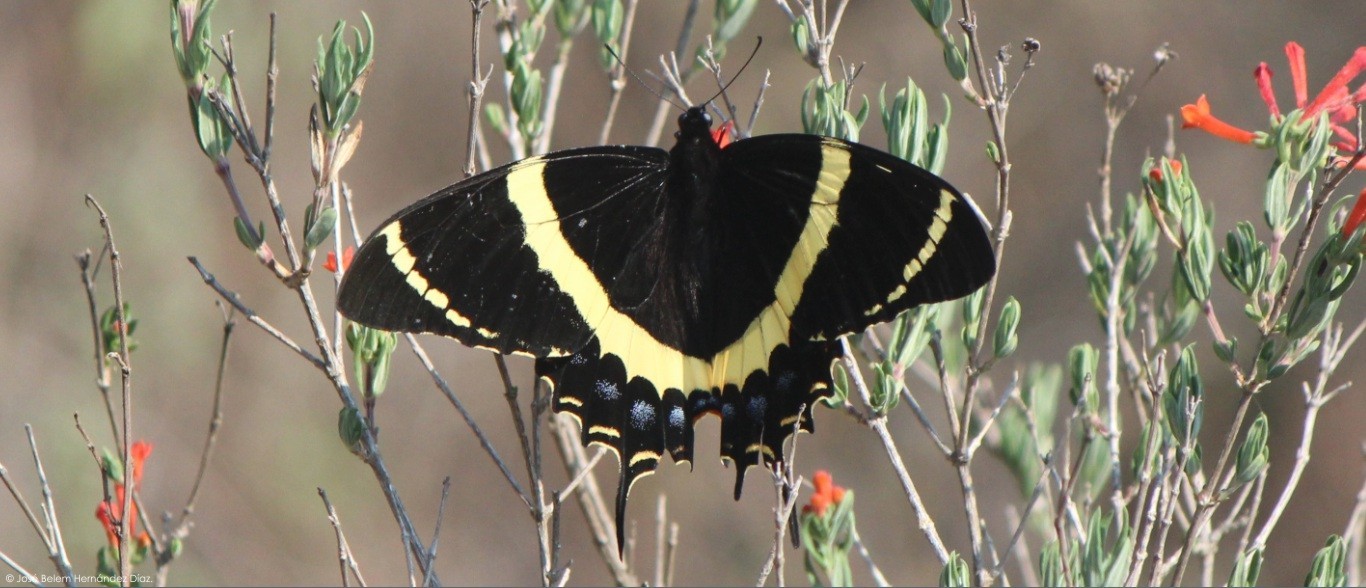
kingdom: Animalia
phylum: Arthropoda
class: Insecta
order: Lepidoptera
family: Papilionidae
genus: Papilio
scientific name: Papilio garamas
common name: Magnificent swallowtail
